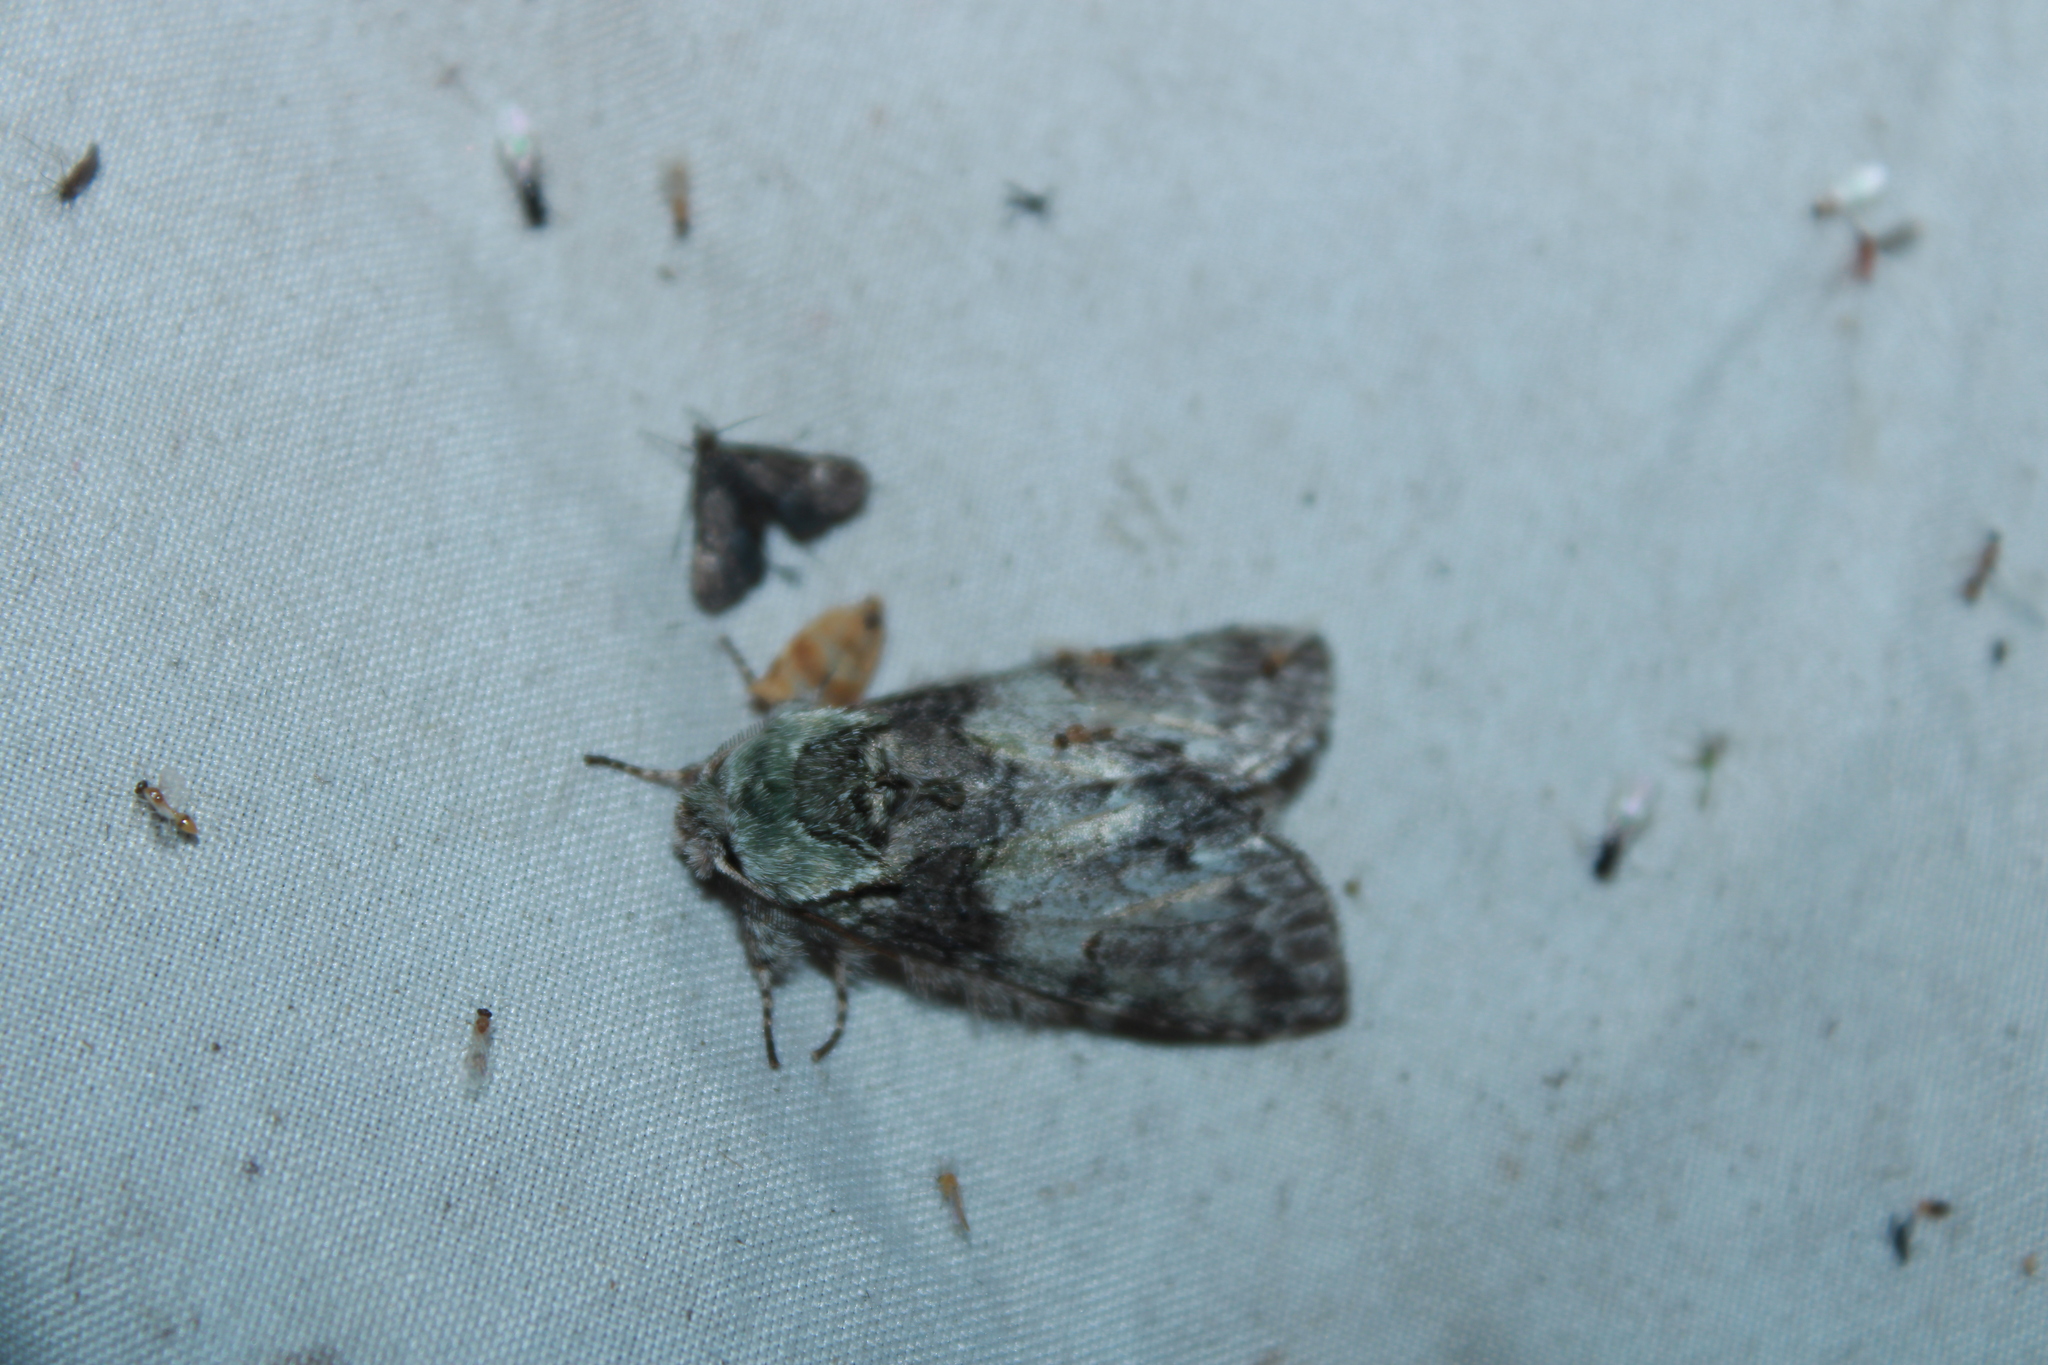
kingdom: Animalia
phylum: Arthropoda
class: Insecta
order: Lepidoptera
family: Notodontidae
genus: Macrurocampa
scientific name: Macrurocampa marthesia
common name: Mottled prominent
